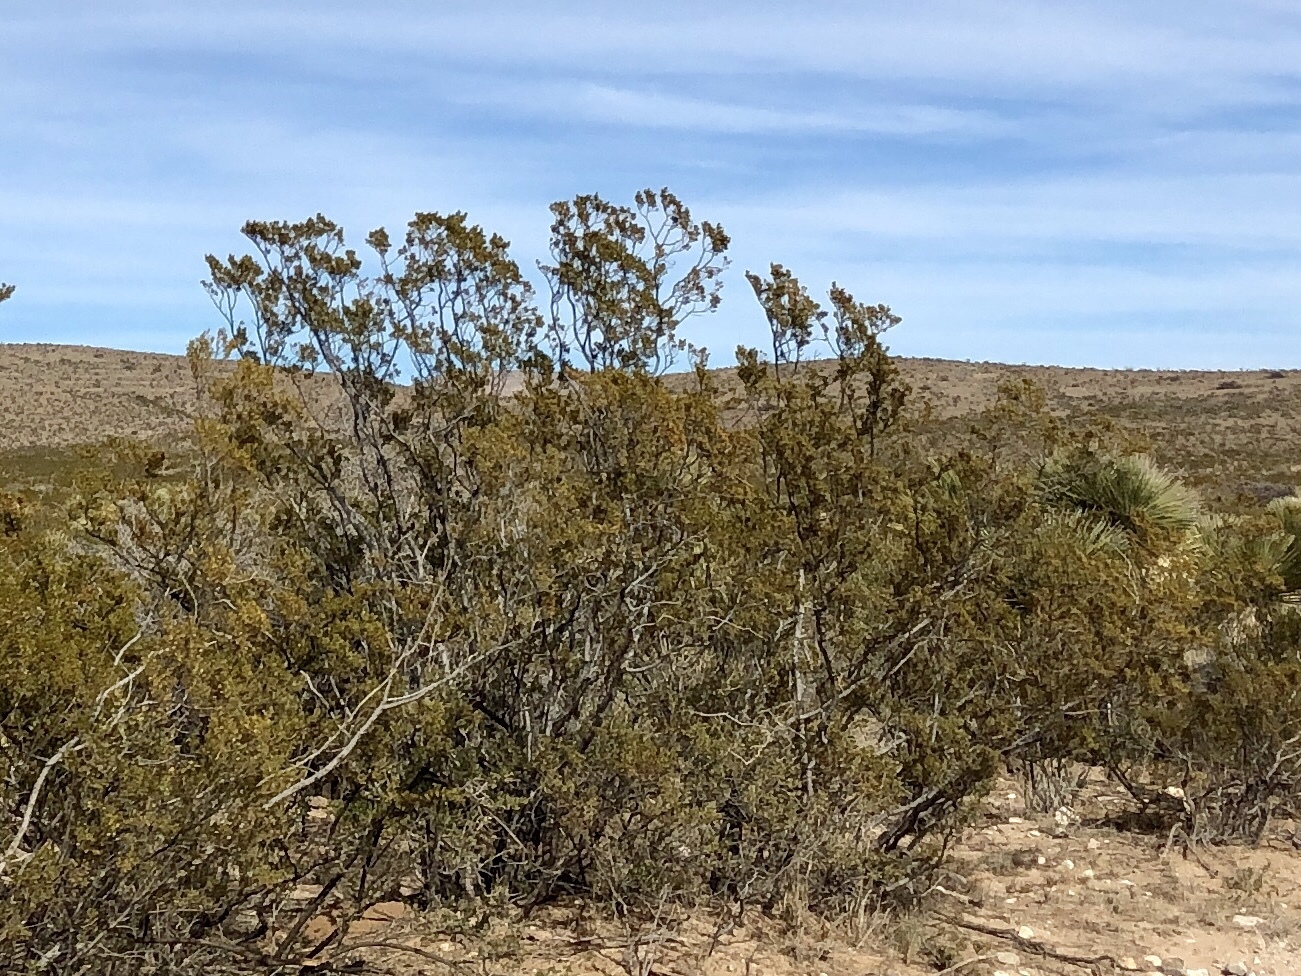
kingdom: Plantae
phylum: Tracheophyta
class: Magnoliopsida
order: Zygophyllales
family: Zygophyllaceae
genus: Larrea
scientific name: Larrea tridentata
